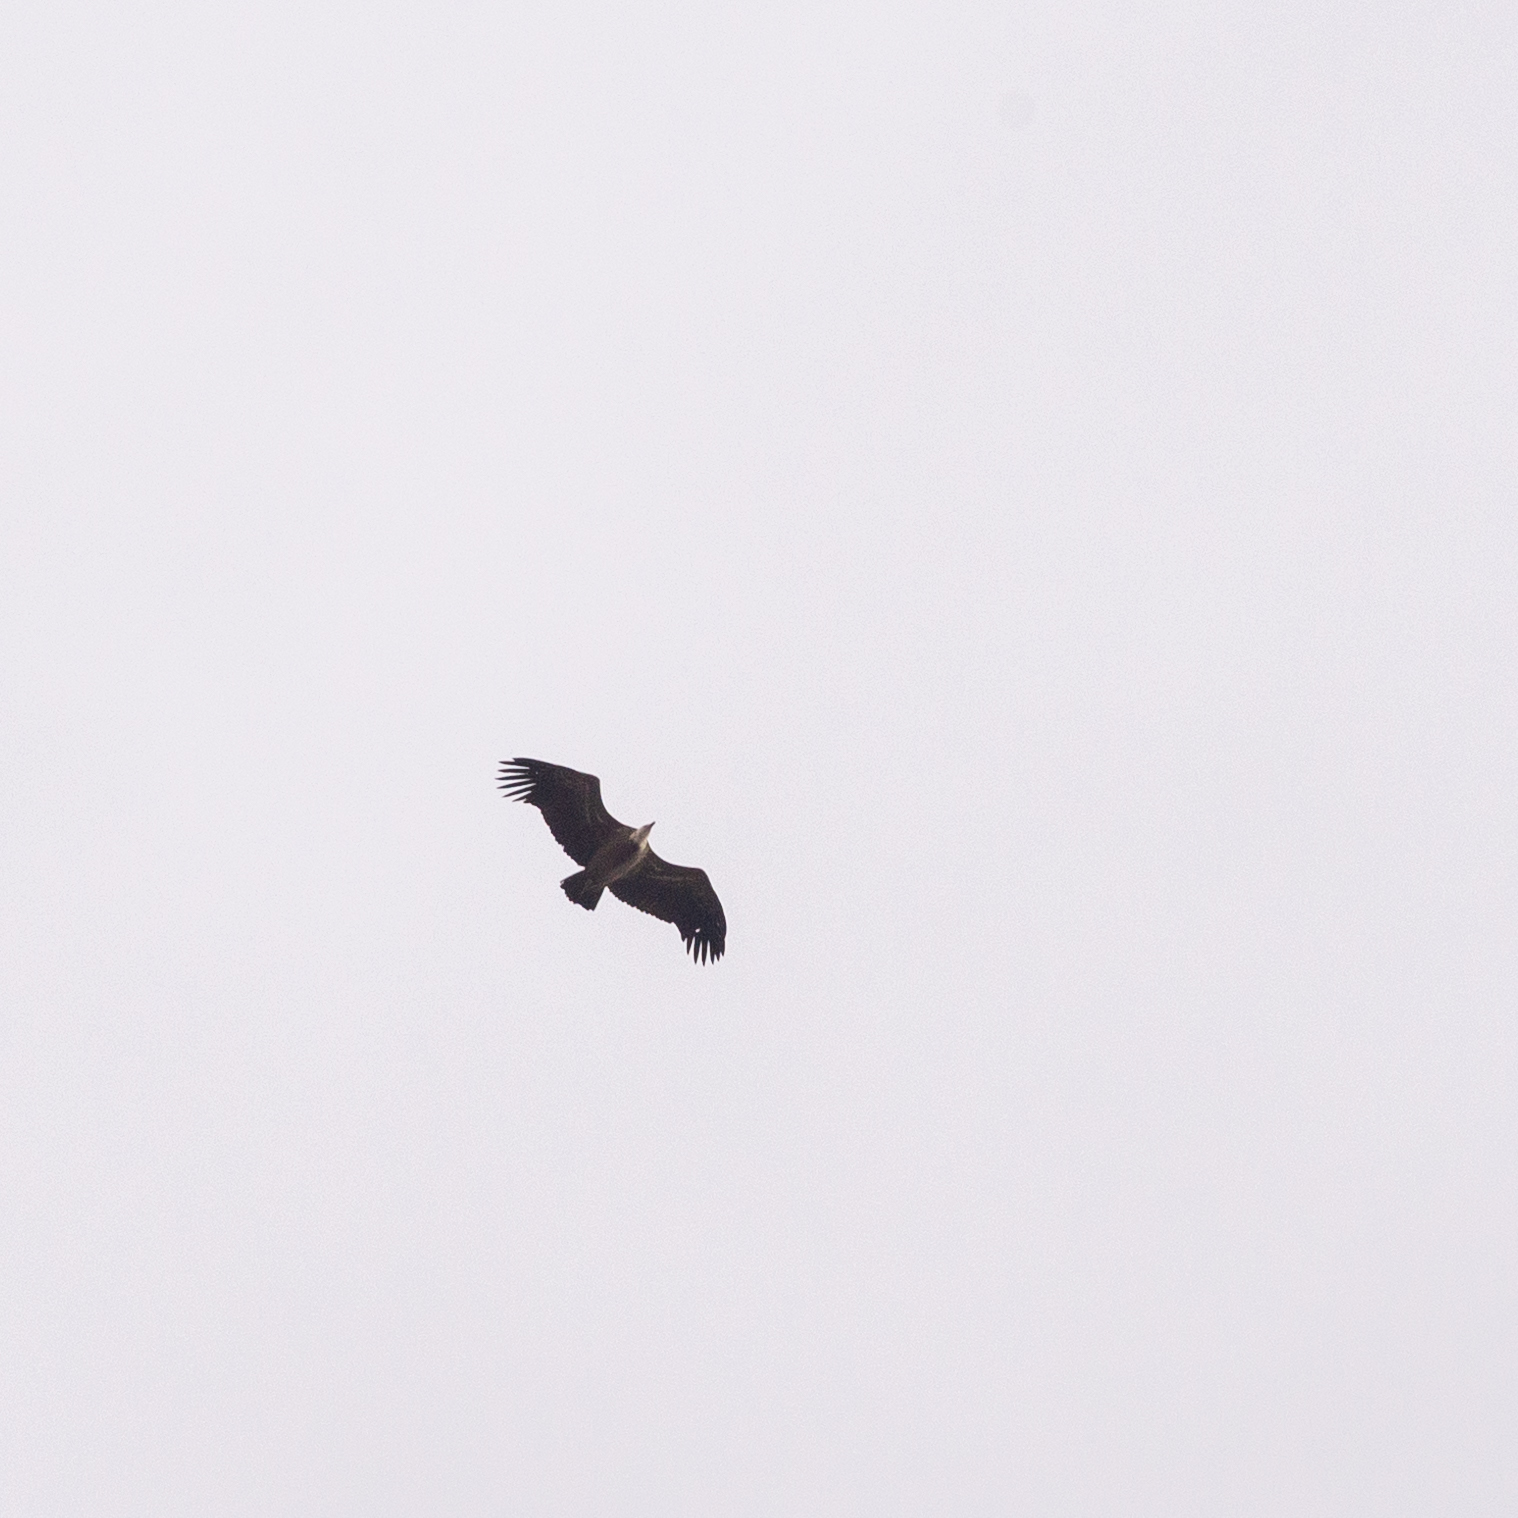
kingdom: Animalia
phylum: Chordata
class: Aves
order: Accipitriformes
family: Accipitridae
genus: Gyps
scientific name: Gyps fulvus
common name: Griffon vulture
